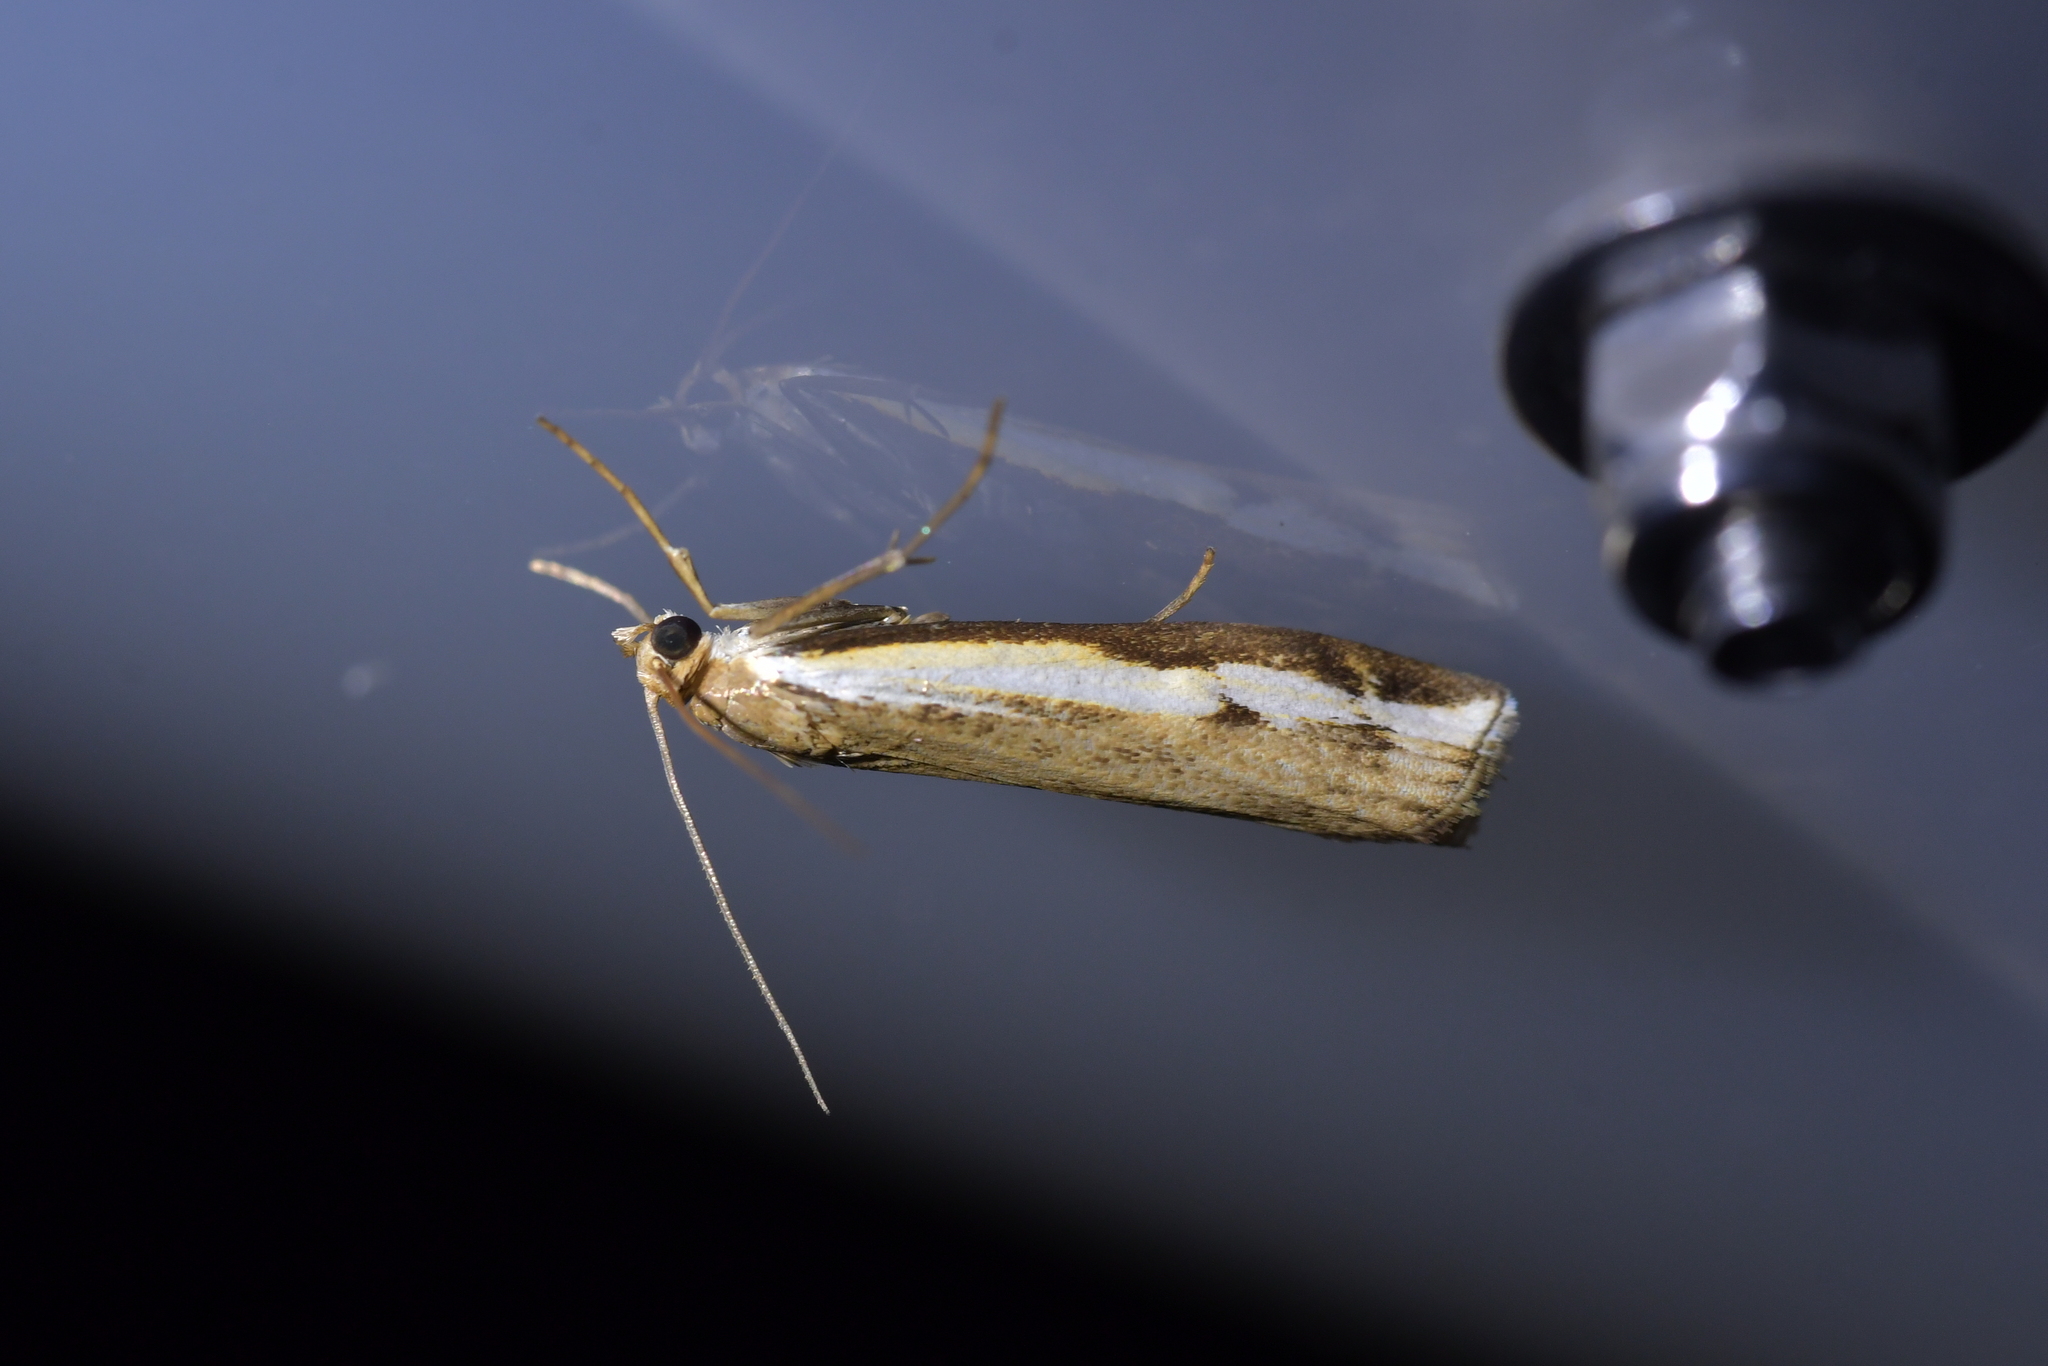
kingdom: Animalia
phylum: Arthropoda
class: Insecta
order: Lepidoptera
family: Crambidae
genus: Orocrambus
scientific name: Orocrambus flexuosellus
